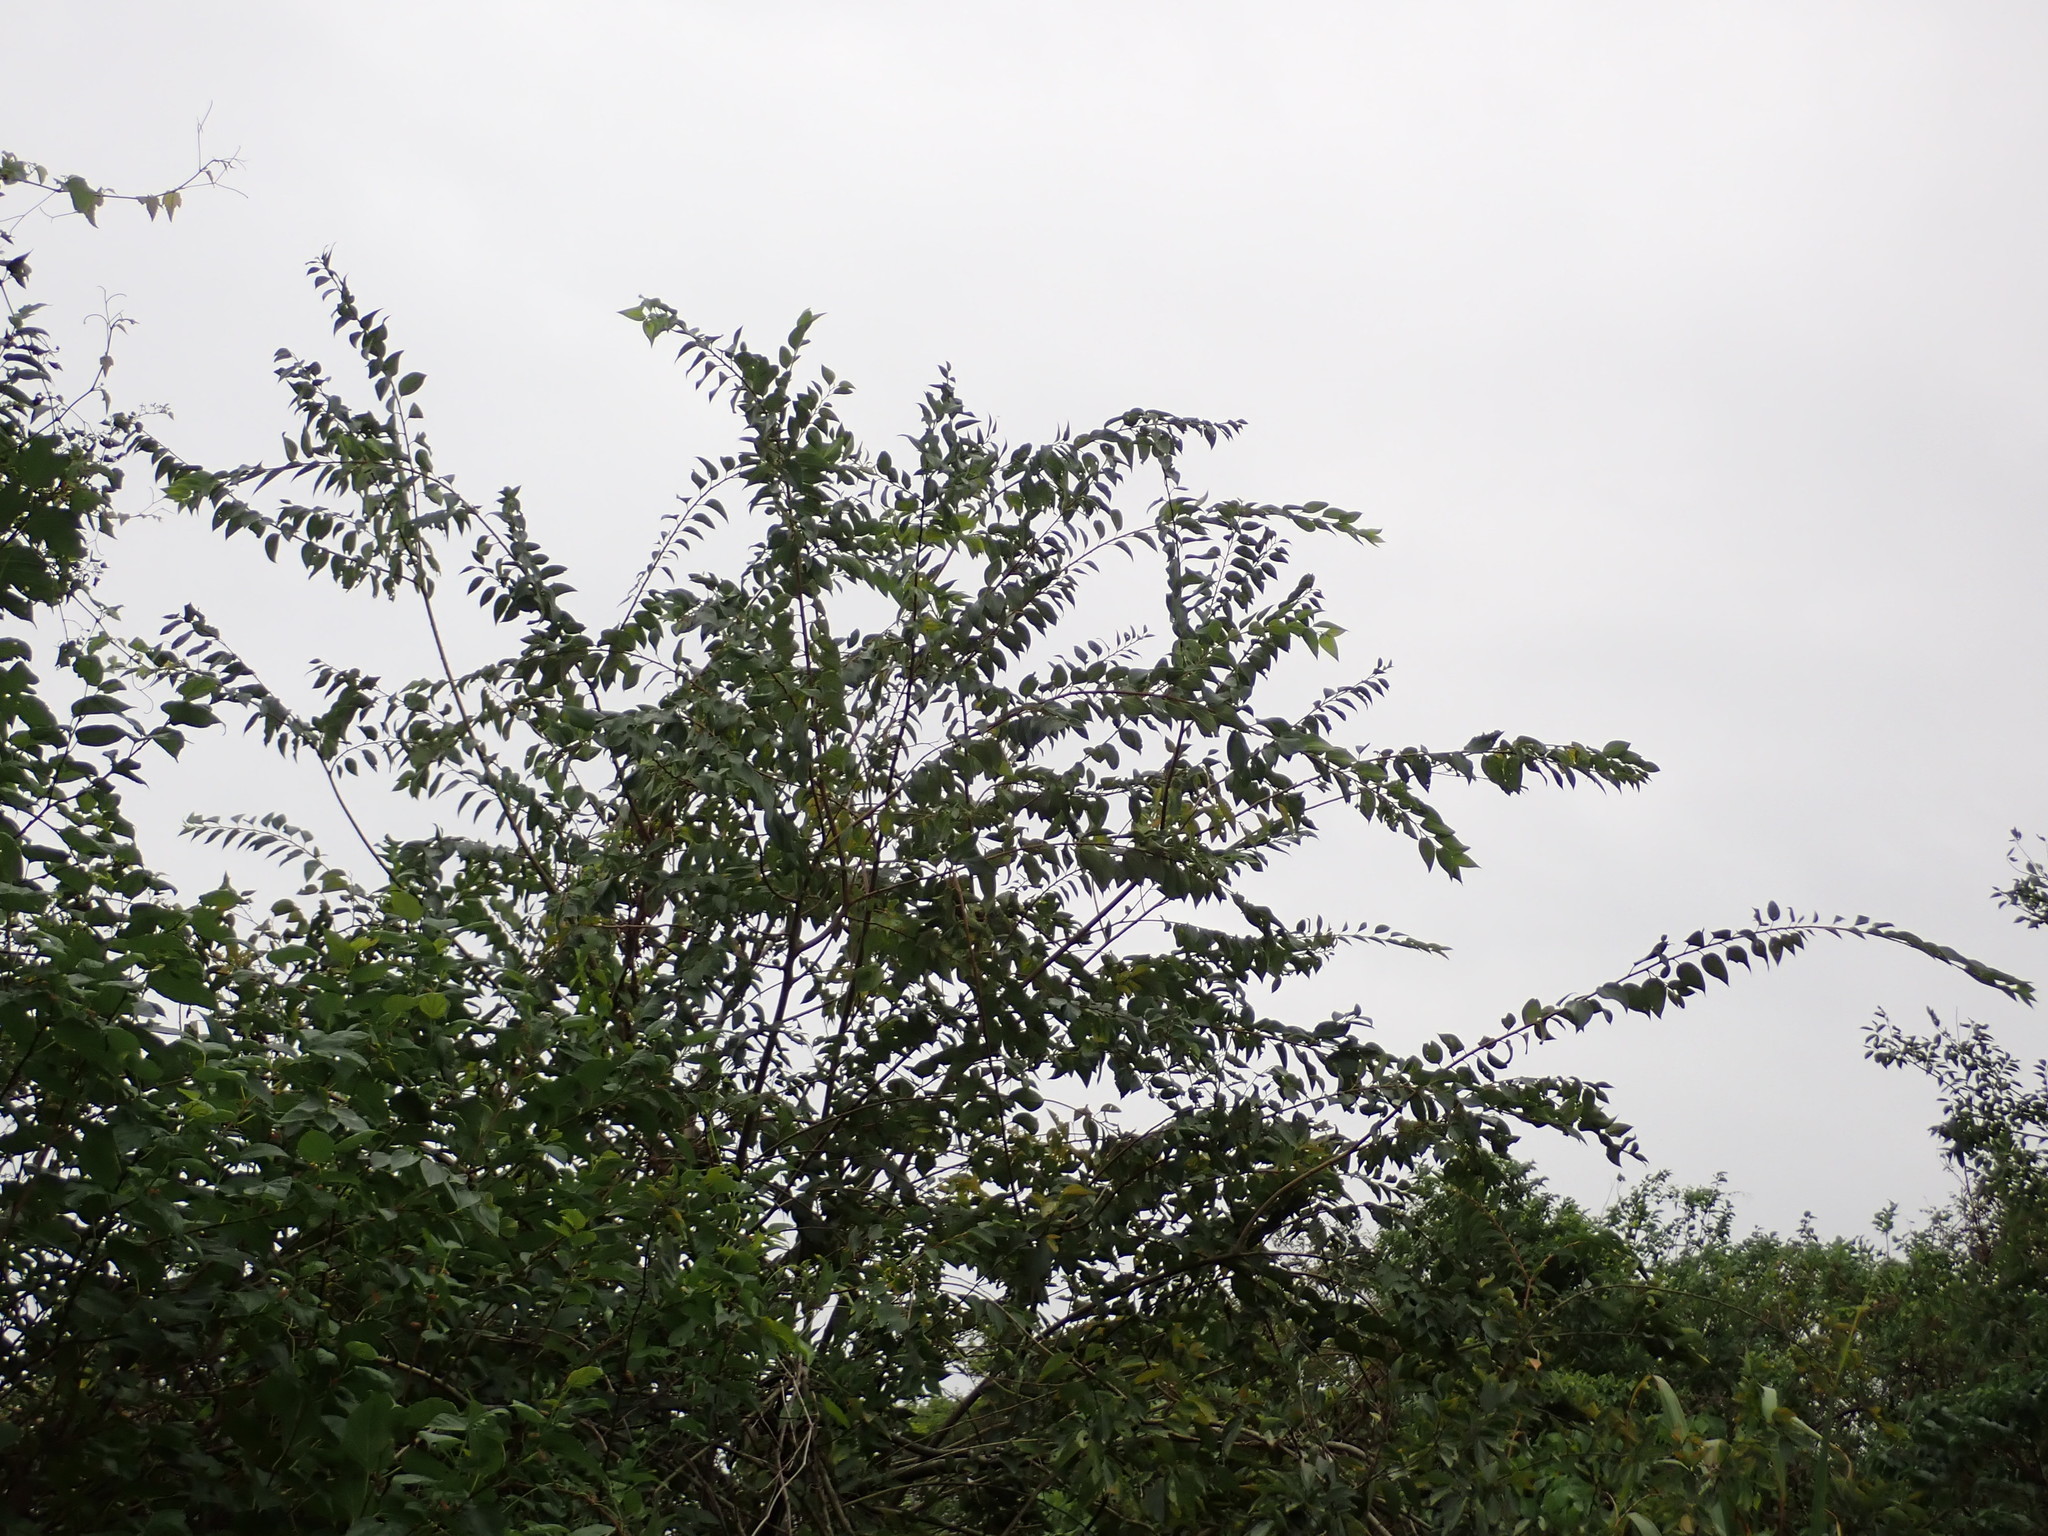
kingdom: Plantae
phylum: Tracheophyta
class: Magnoliopsida
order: Rosales
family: Cannabaceae
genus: Celtis
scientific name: Celtis sinensis
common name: Chinese hackberry
